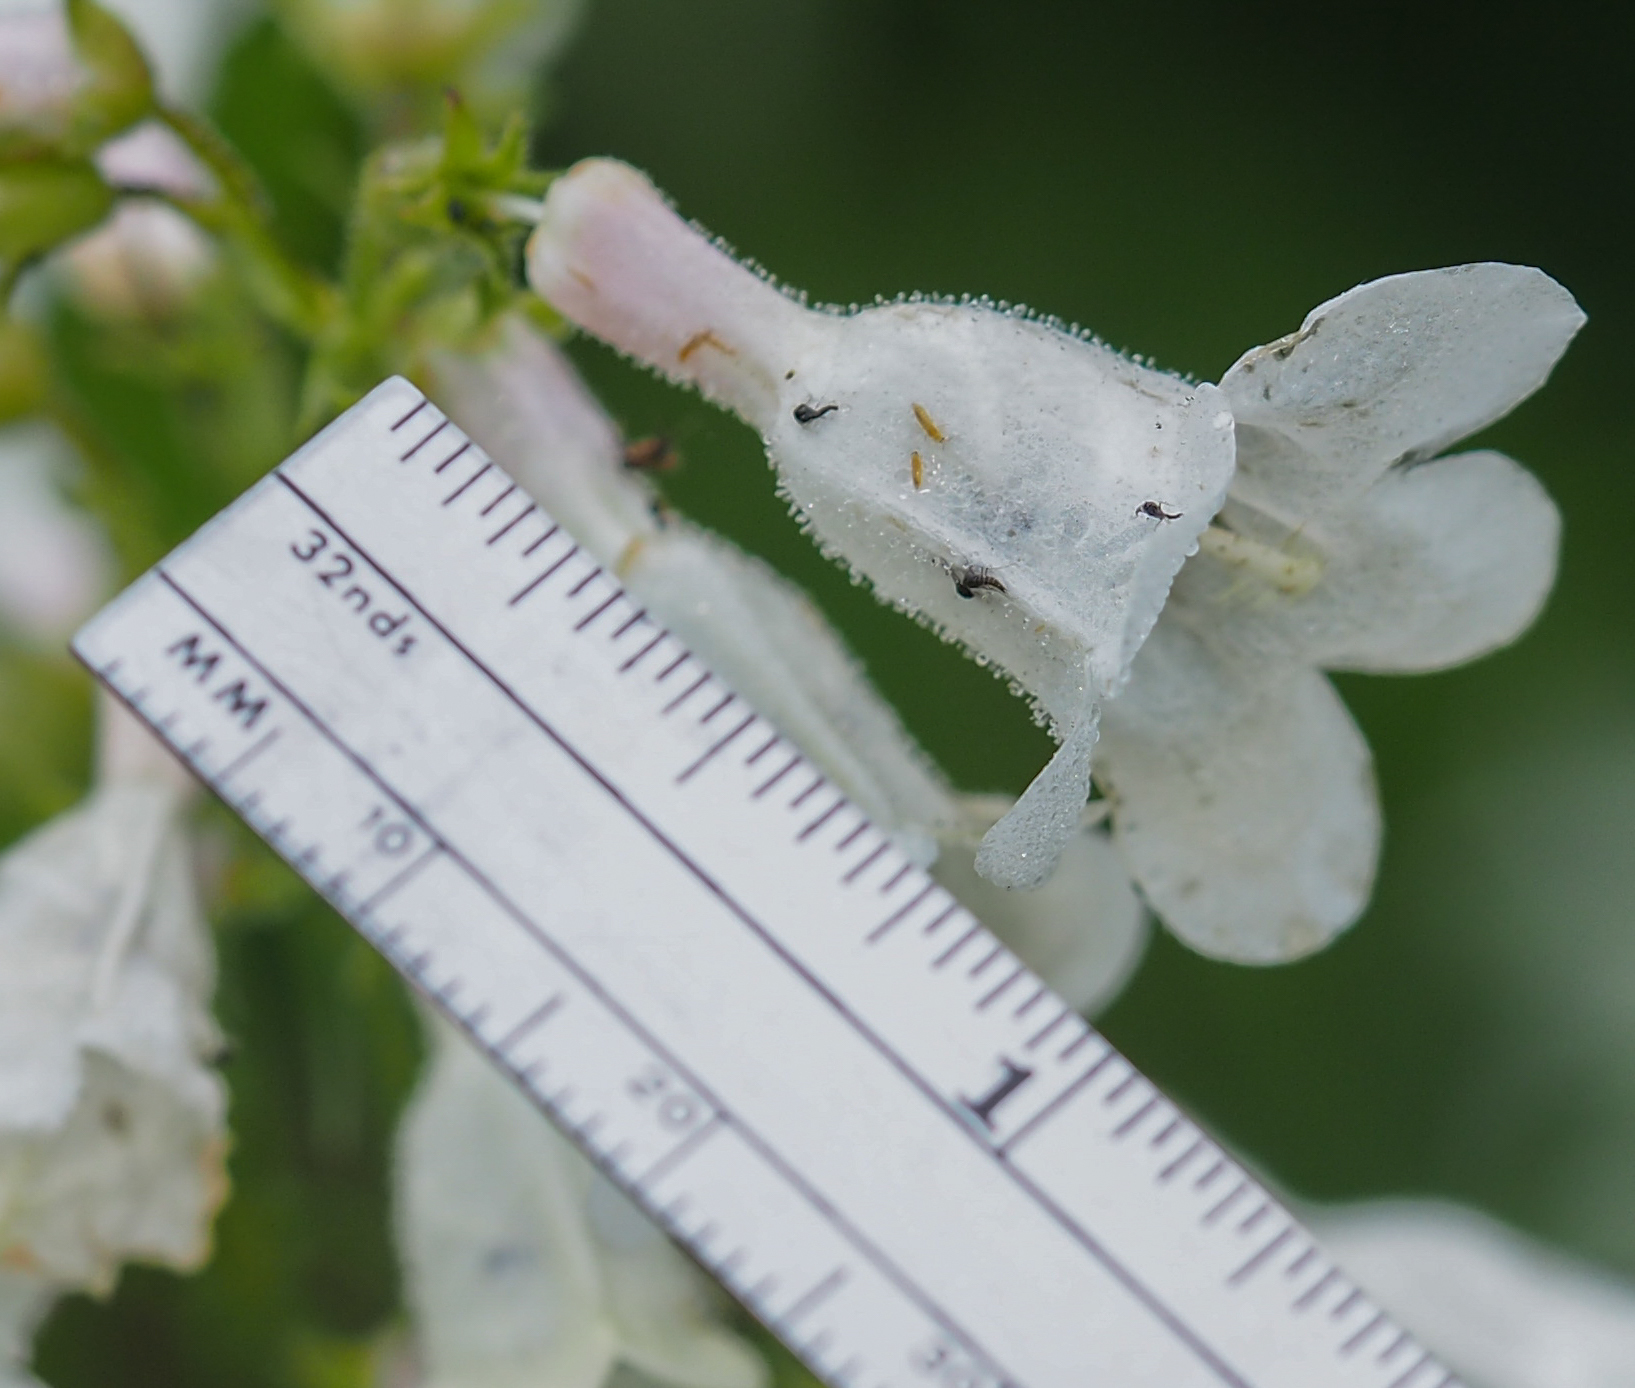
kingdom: Plantae
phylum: Tracheophyta
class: Magnoliopsida
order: Lamiales
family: Plantaginaceae
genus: Penstemon
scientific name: Penstemon digitalis
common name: Foxglove beardtongue
